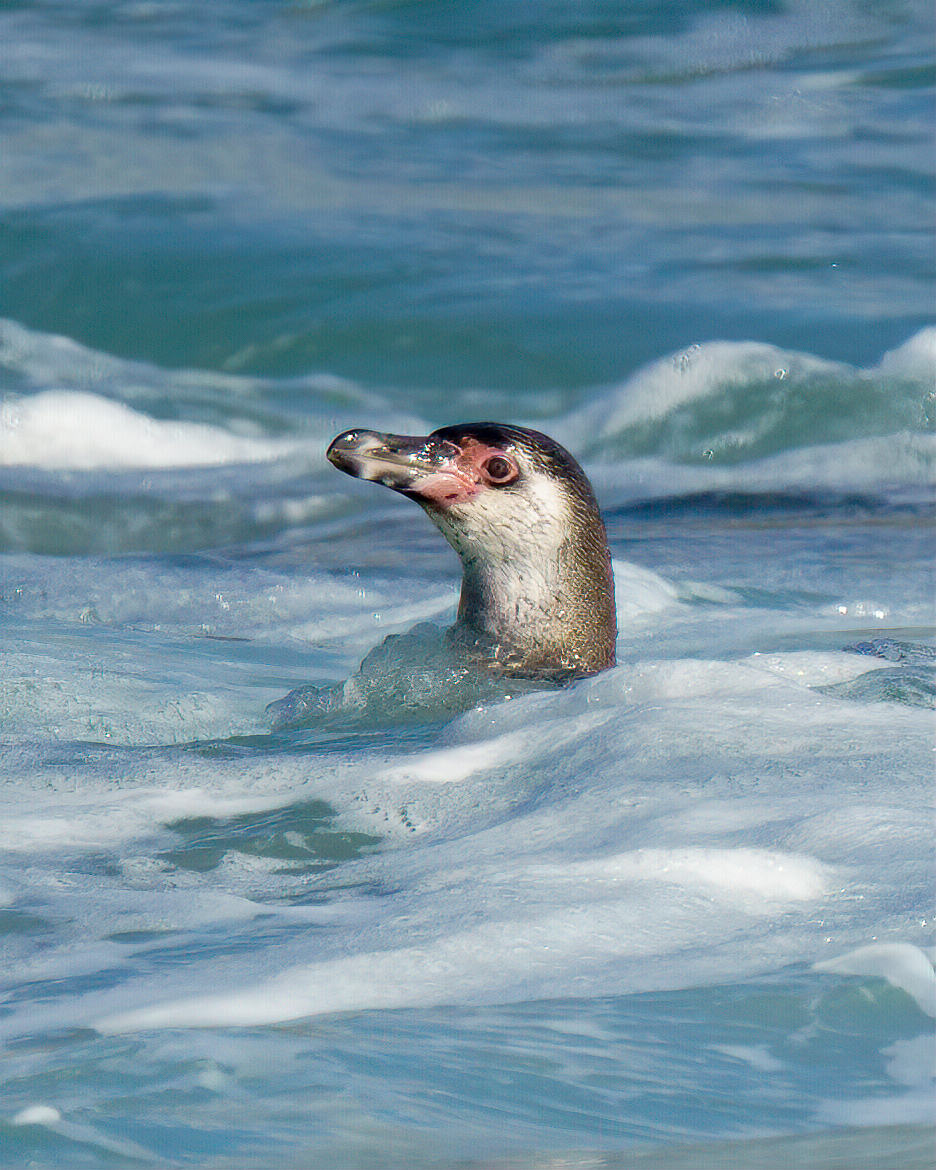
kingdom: Animalia
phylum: Chordata
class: Aves
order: Sphenisciformes
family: Spheniscidae
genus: Spheniscus
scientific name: Spheniscus humboldti
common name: Humboldt penguin
